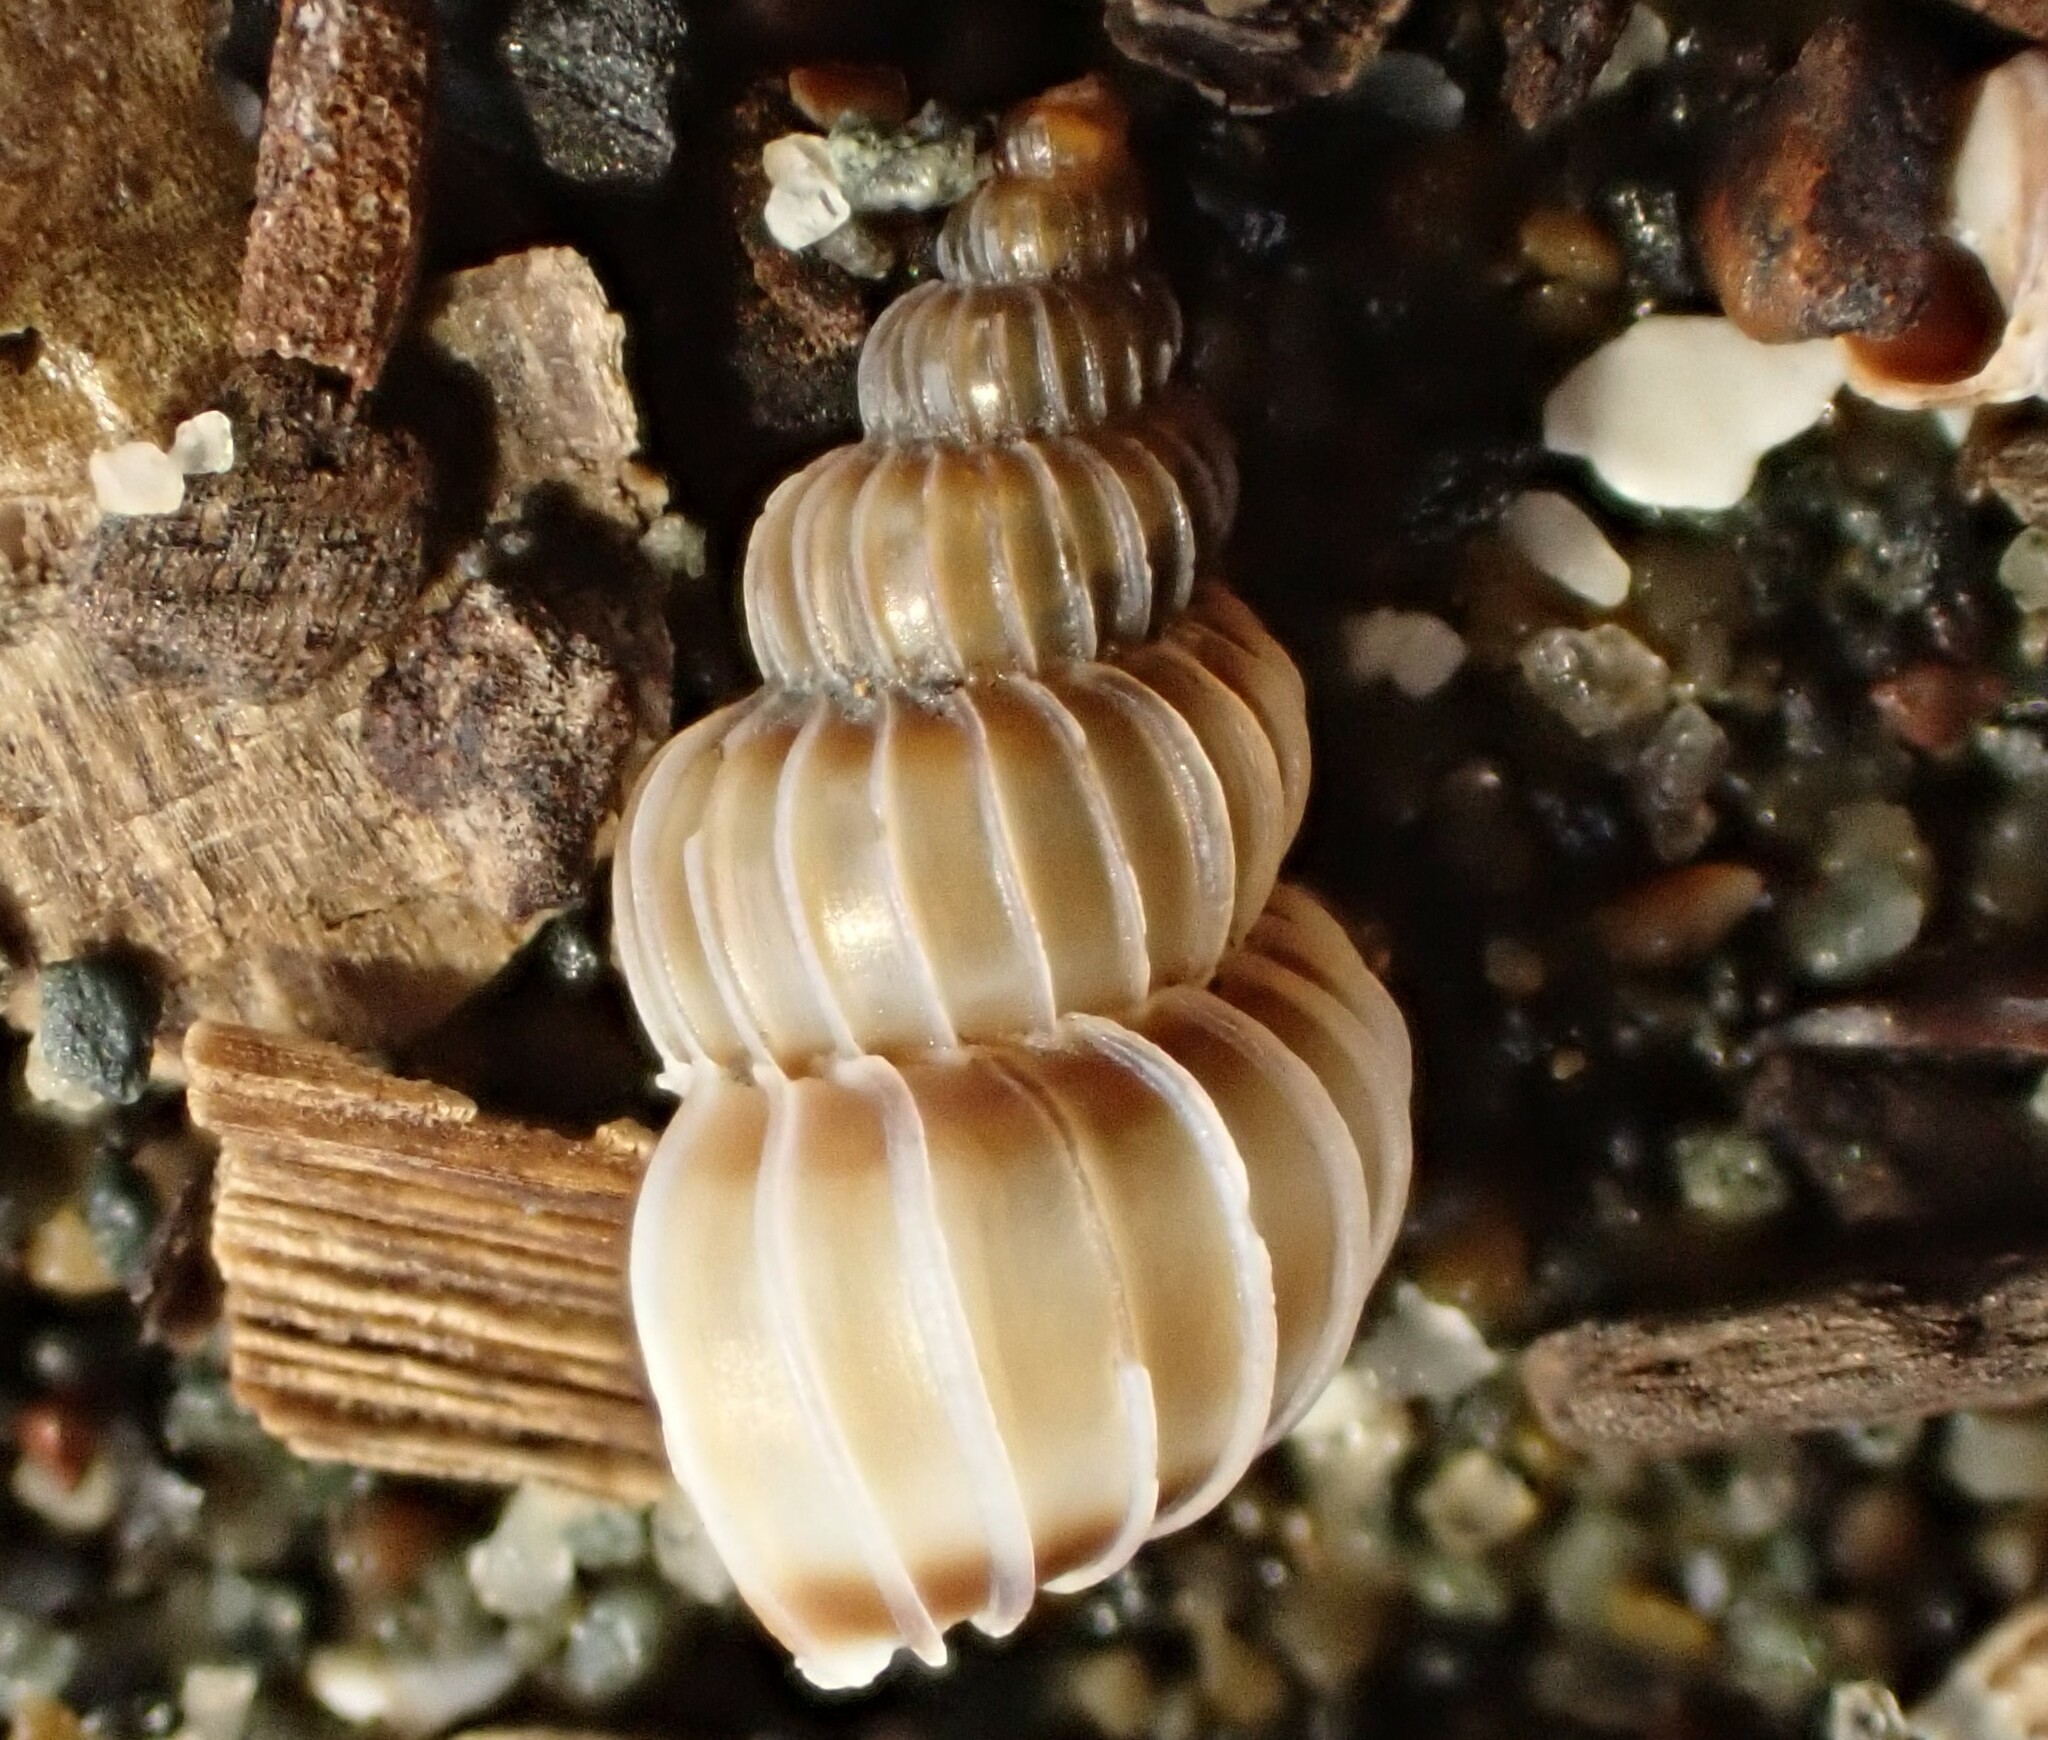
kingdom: Animalia
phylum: Mollusca
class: Gastropoda
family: Epitoniidae
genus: Epitonium
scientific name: Epitonium tenellum
